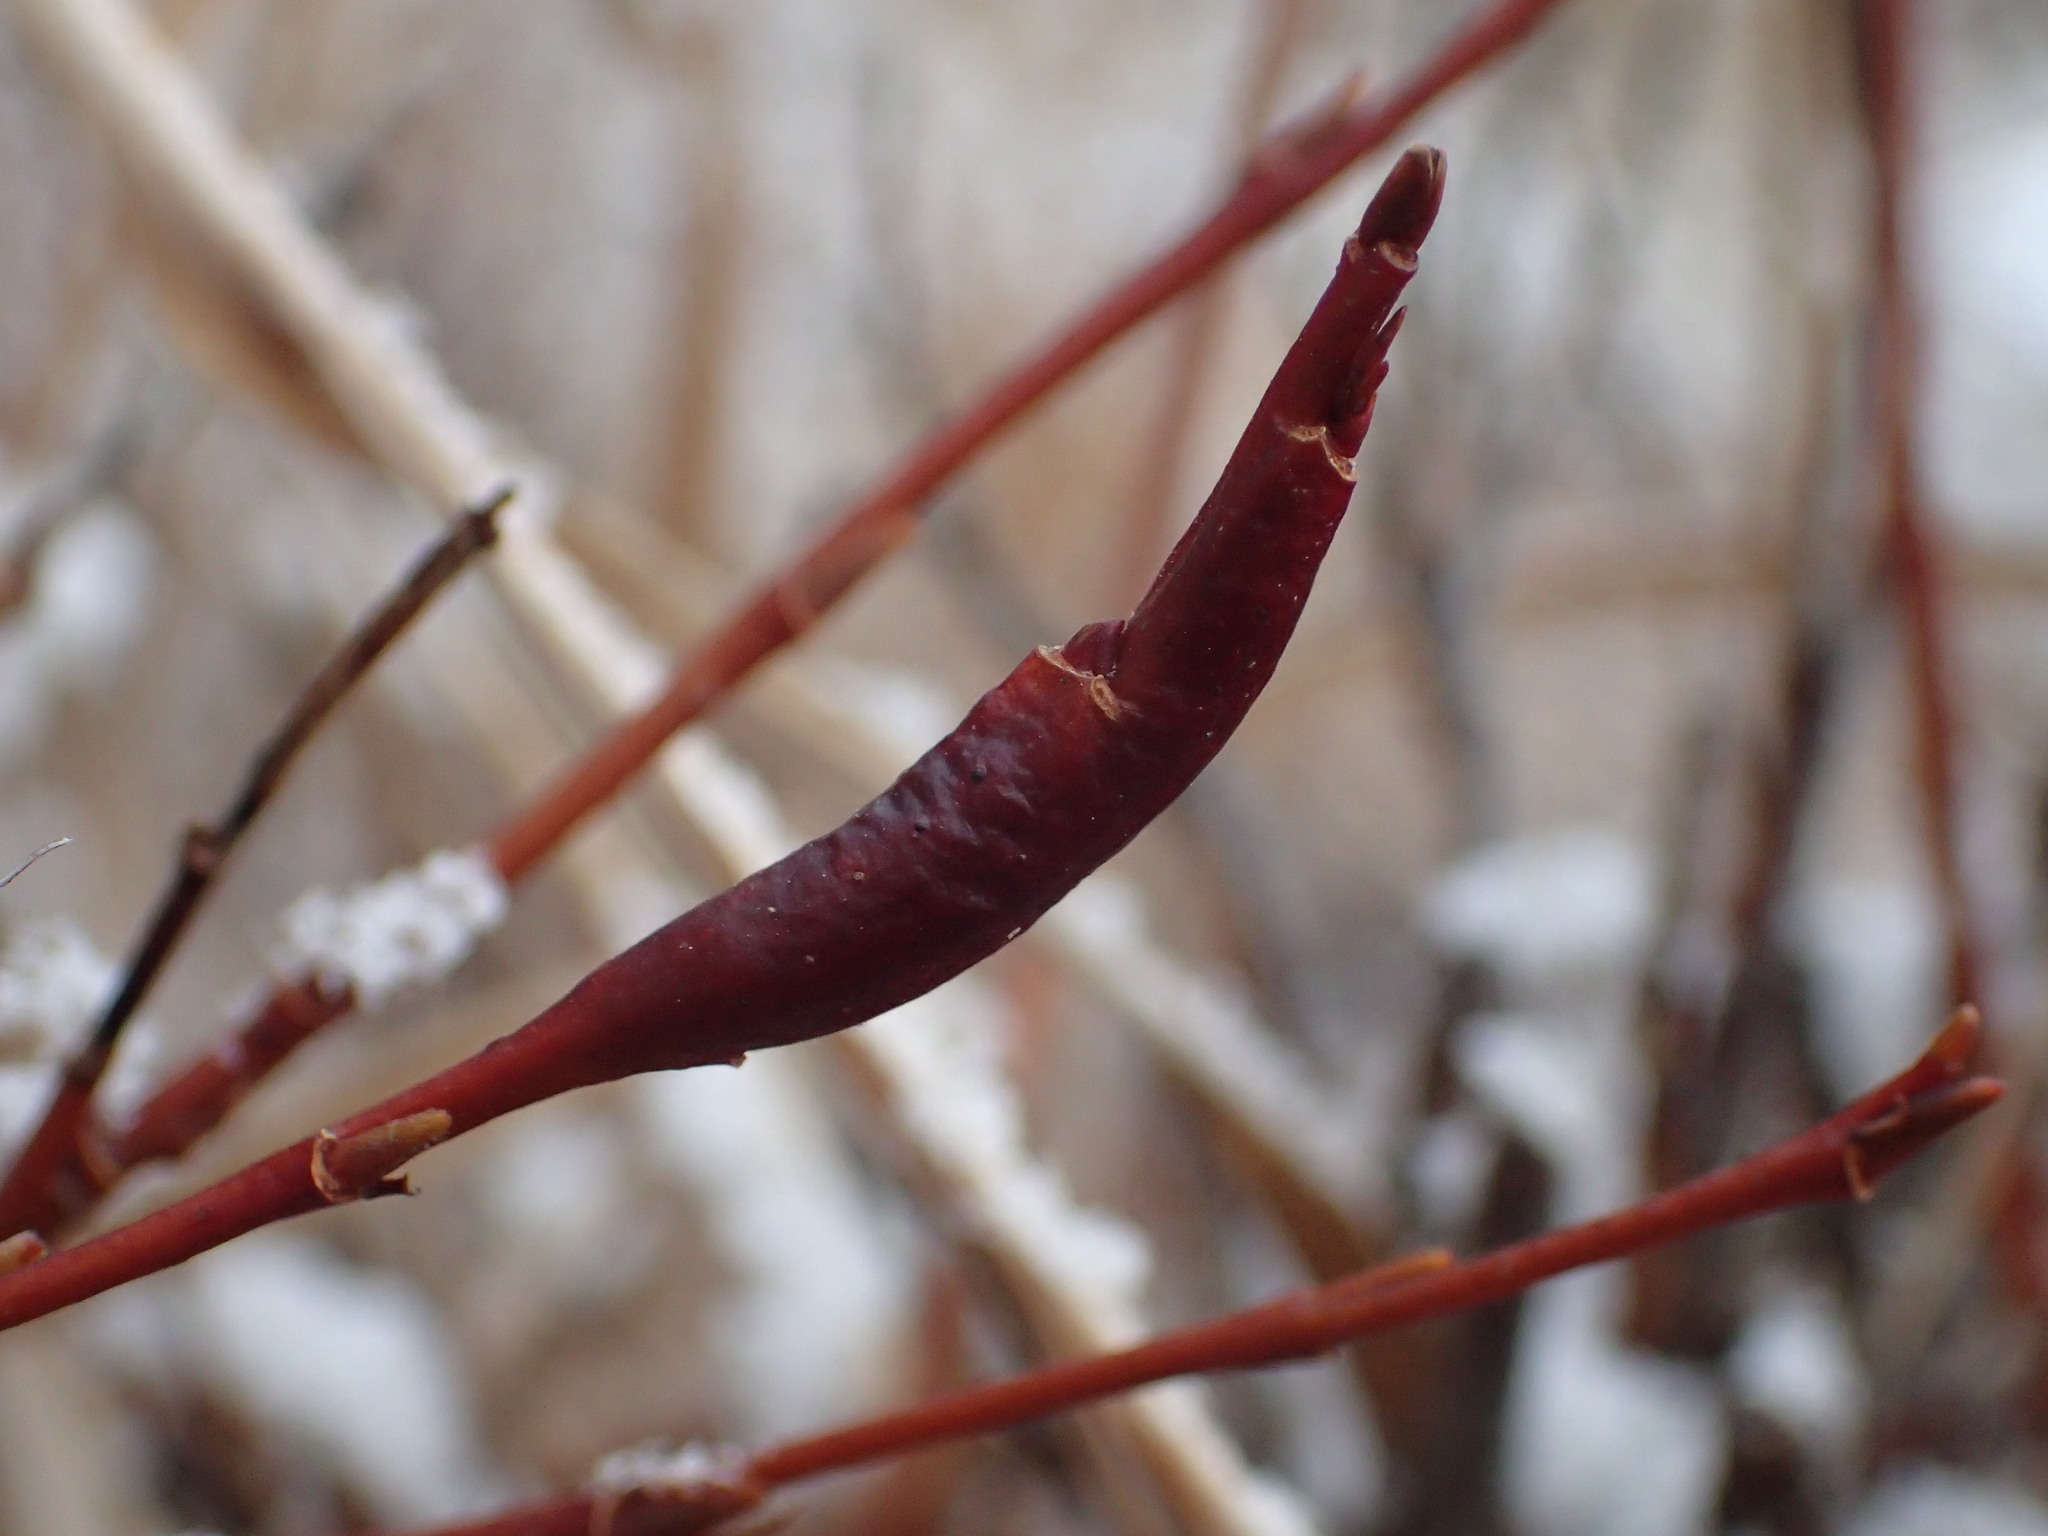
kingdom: Plantae
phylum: Tracheophyta
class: Magnoliopsida
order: Malpighiales
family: Salicaceae
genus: Salix
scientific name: Salix pulchra
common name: Diamond-leaved willow
